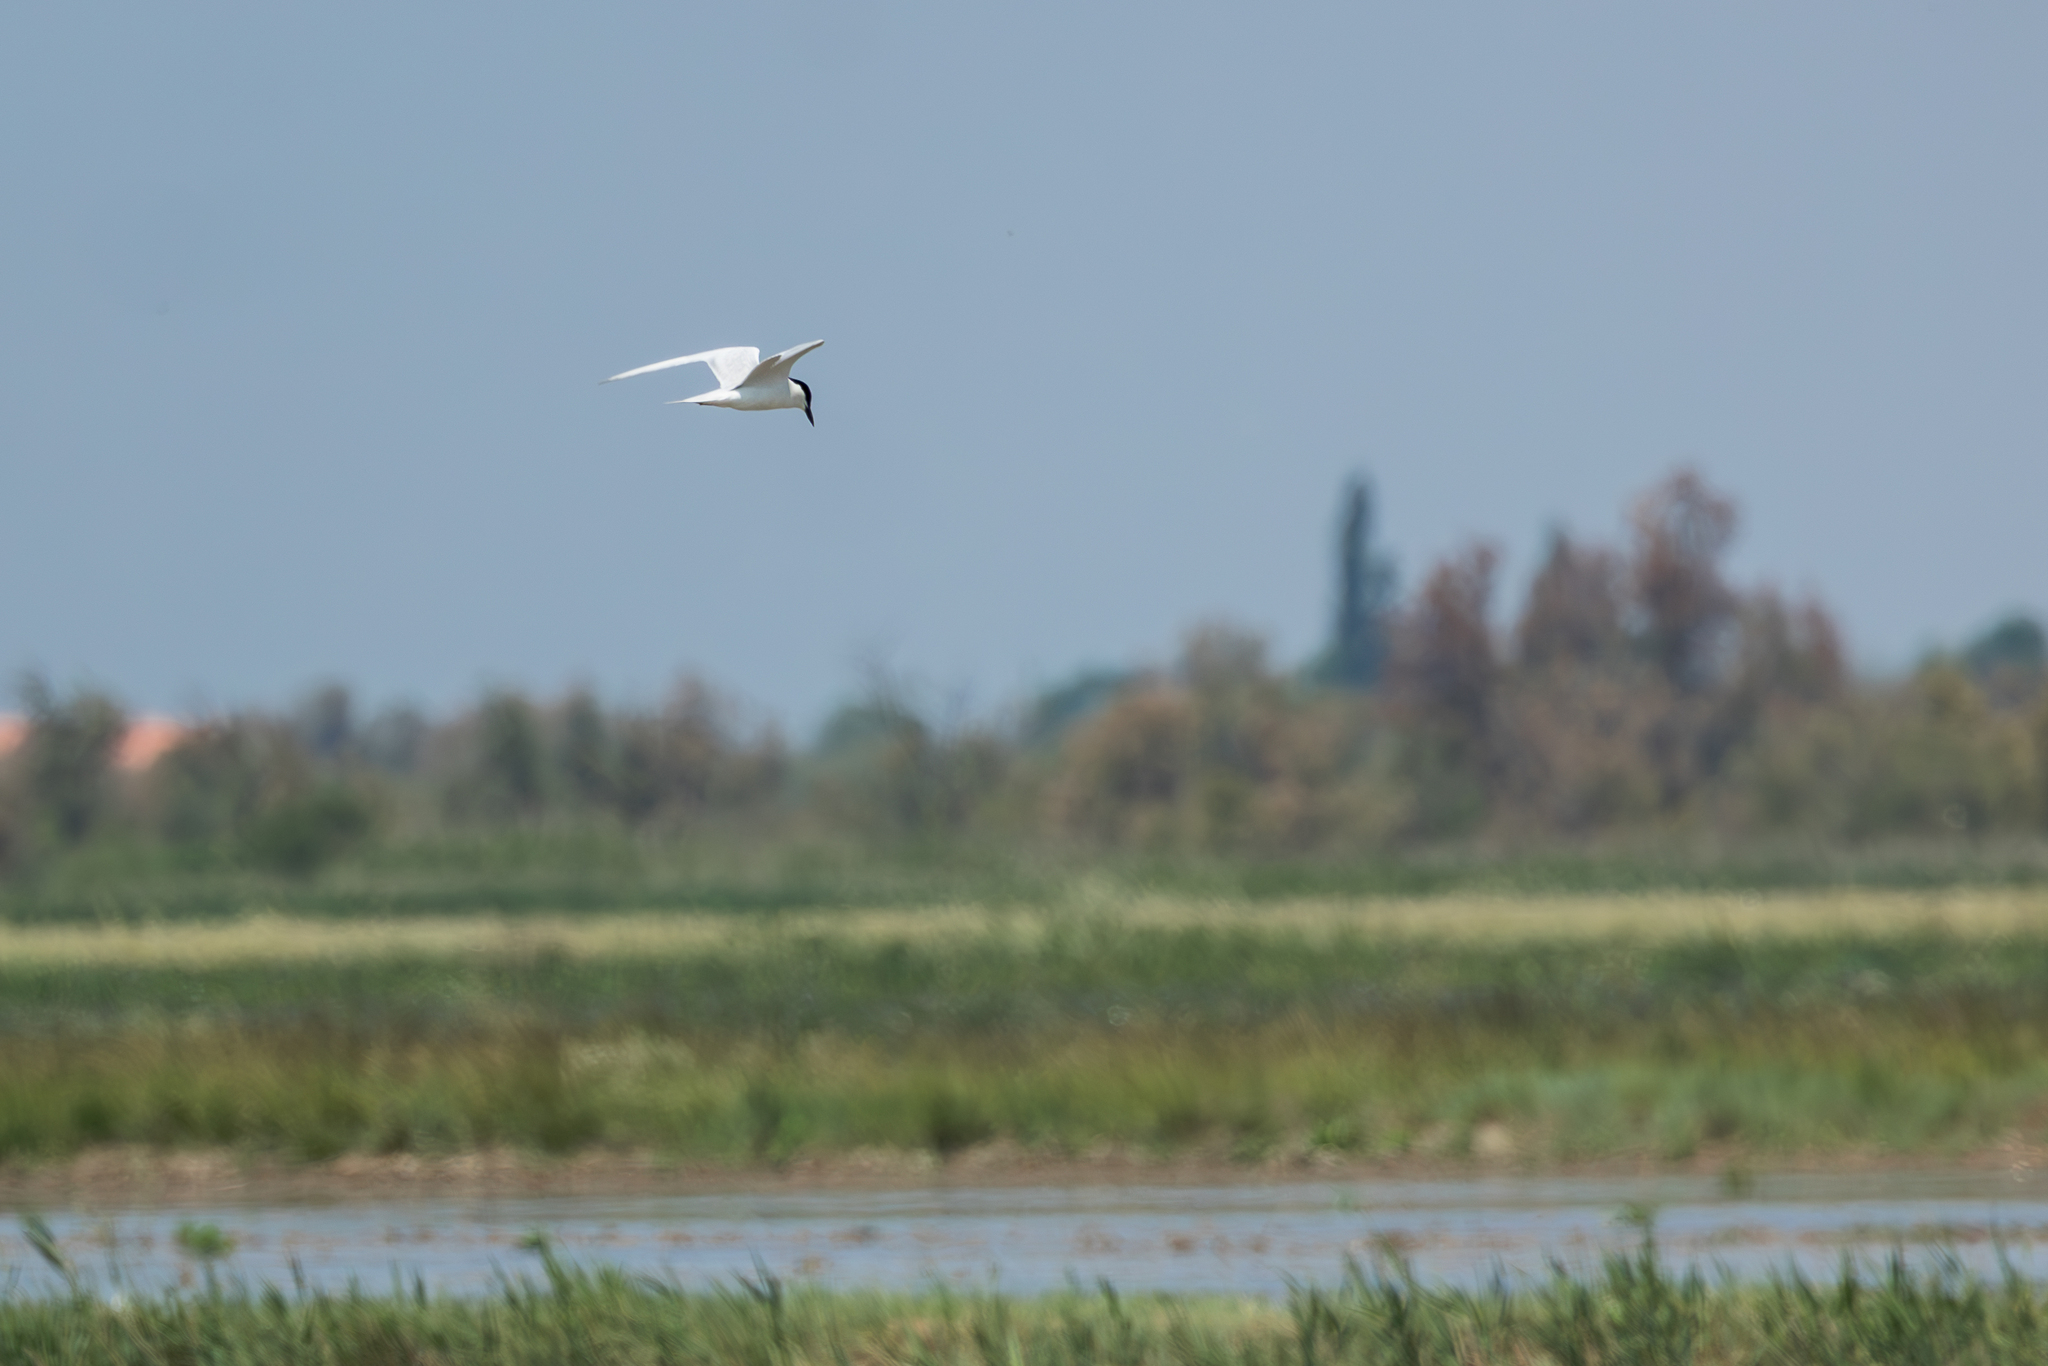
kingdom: Animalia
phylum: Chordata
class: Aves
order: Charadriiformes
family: Laridae
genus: Gelochelidon
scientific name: Gelochelidon nilotica
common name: Gull-billed tern
